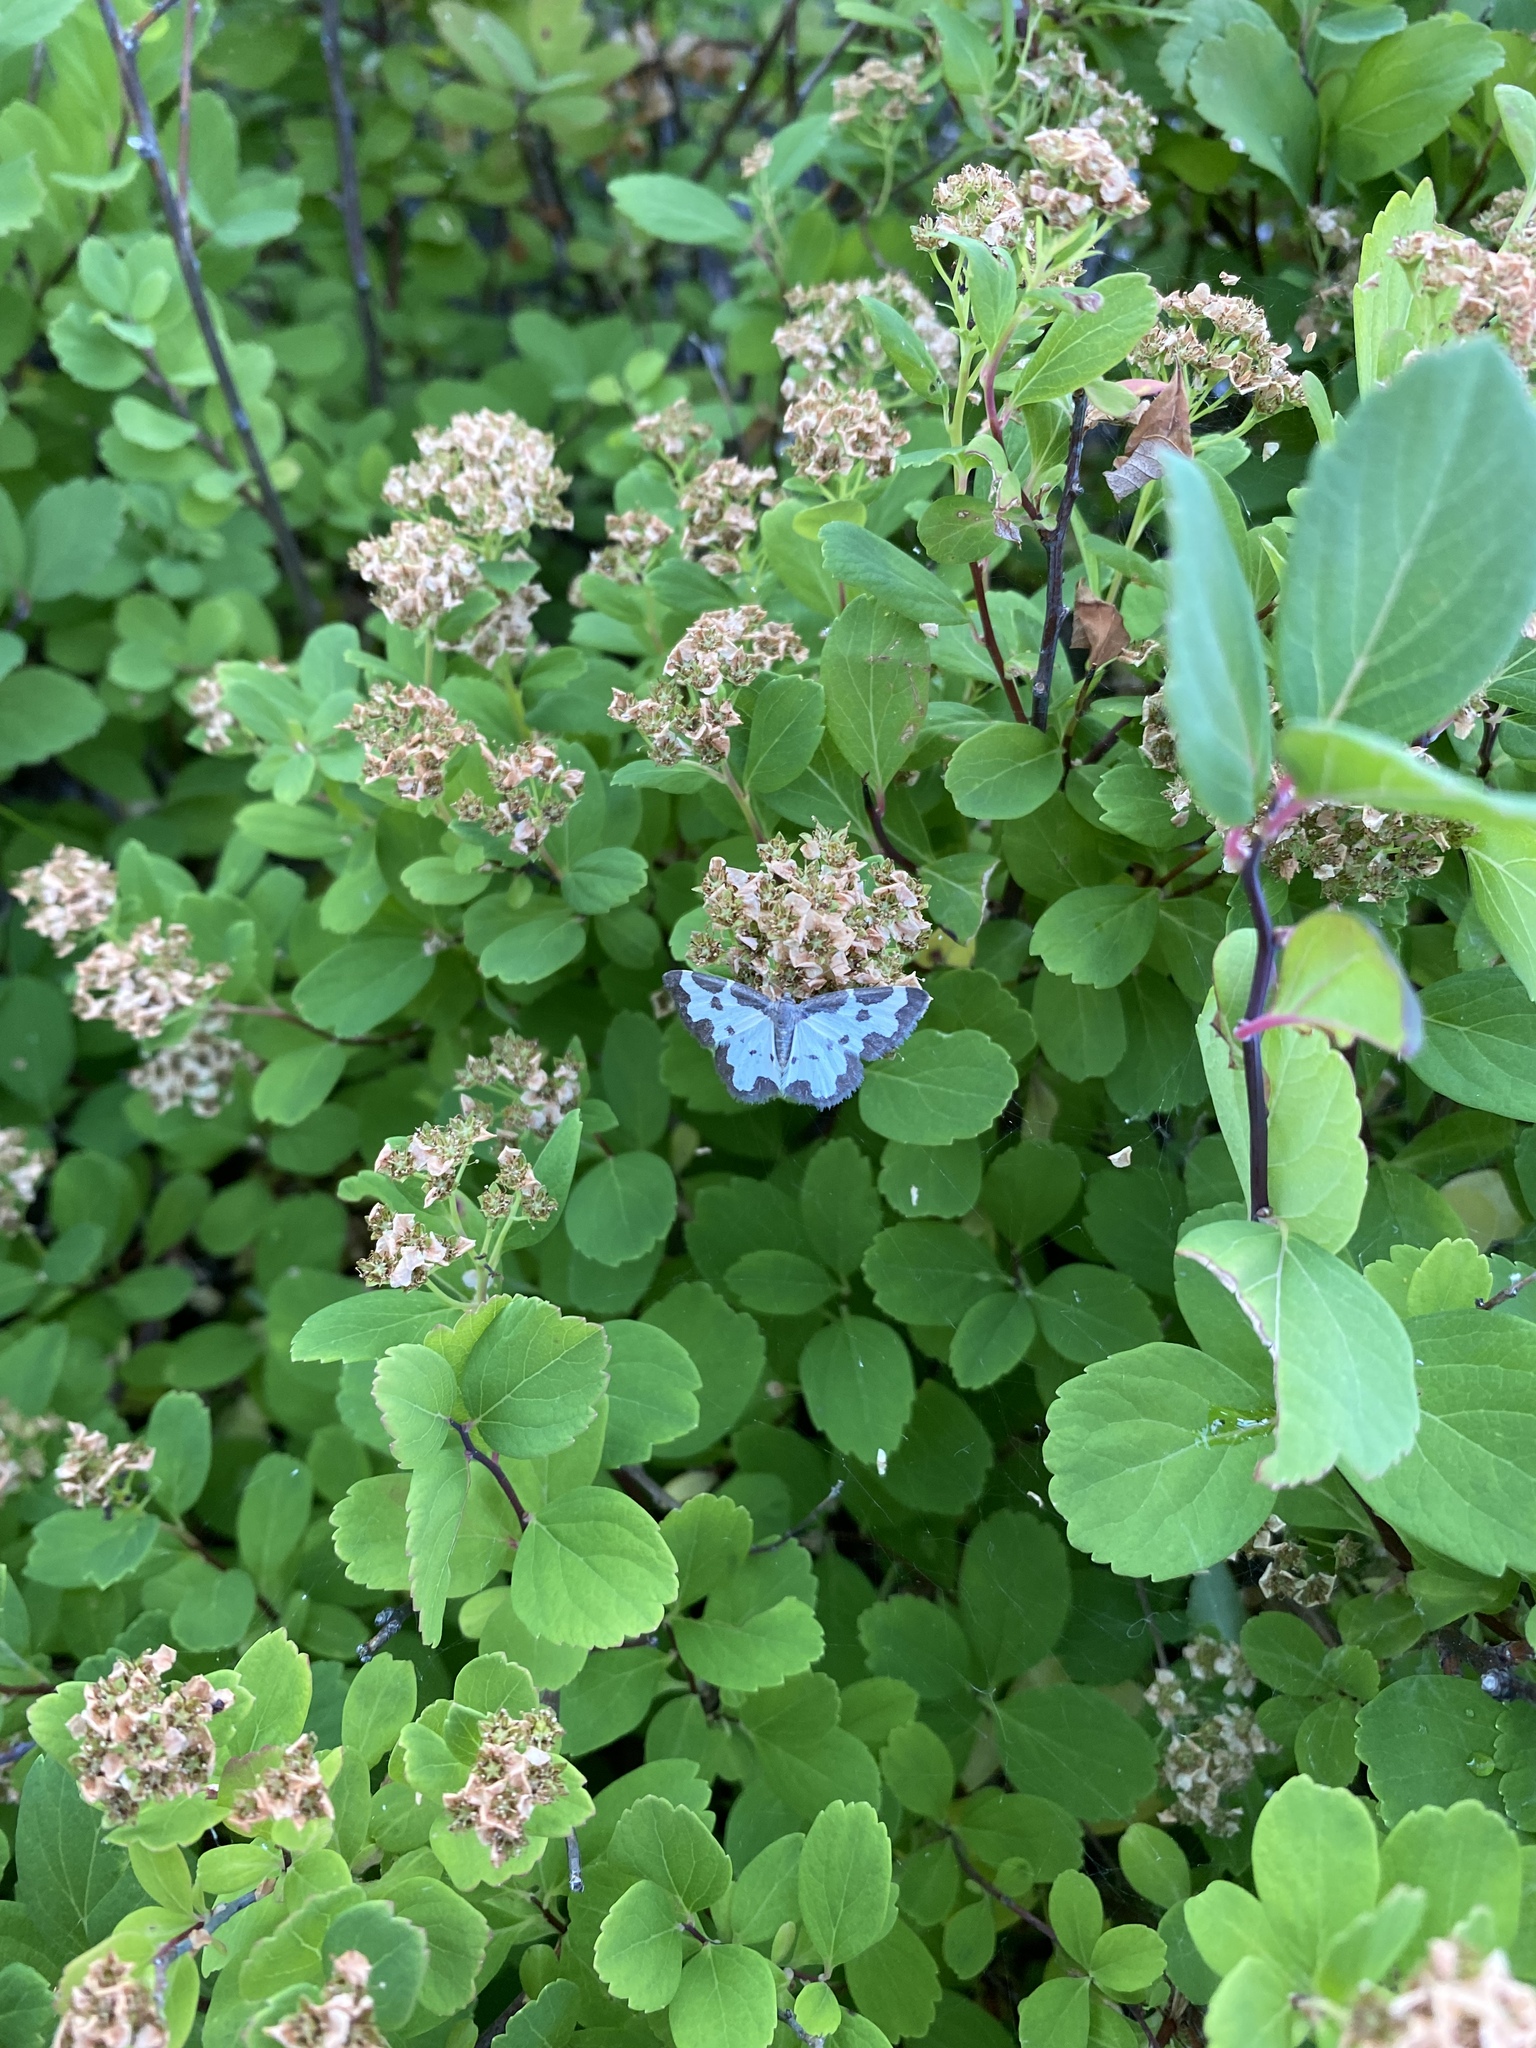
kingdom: Animalia
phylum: Arthropoda
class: Insecta
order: Lepidoptera
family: Geometridae
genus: Lomaspilis
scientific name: Lomaspilis marginata
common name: Clouded border
